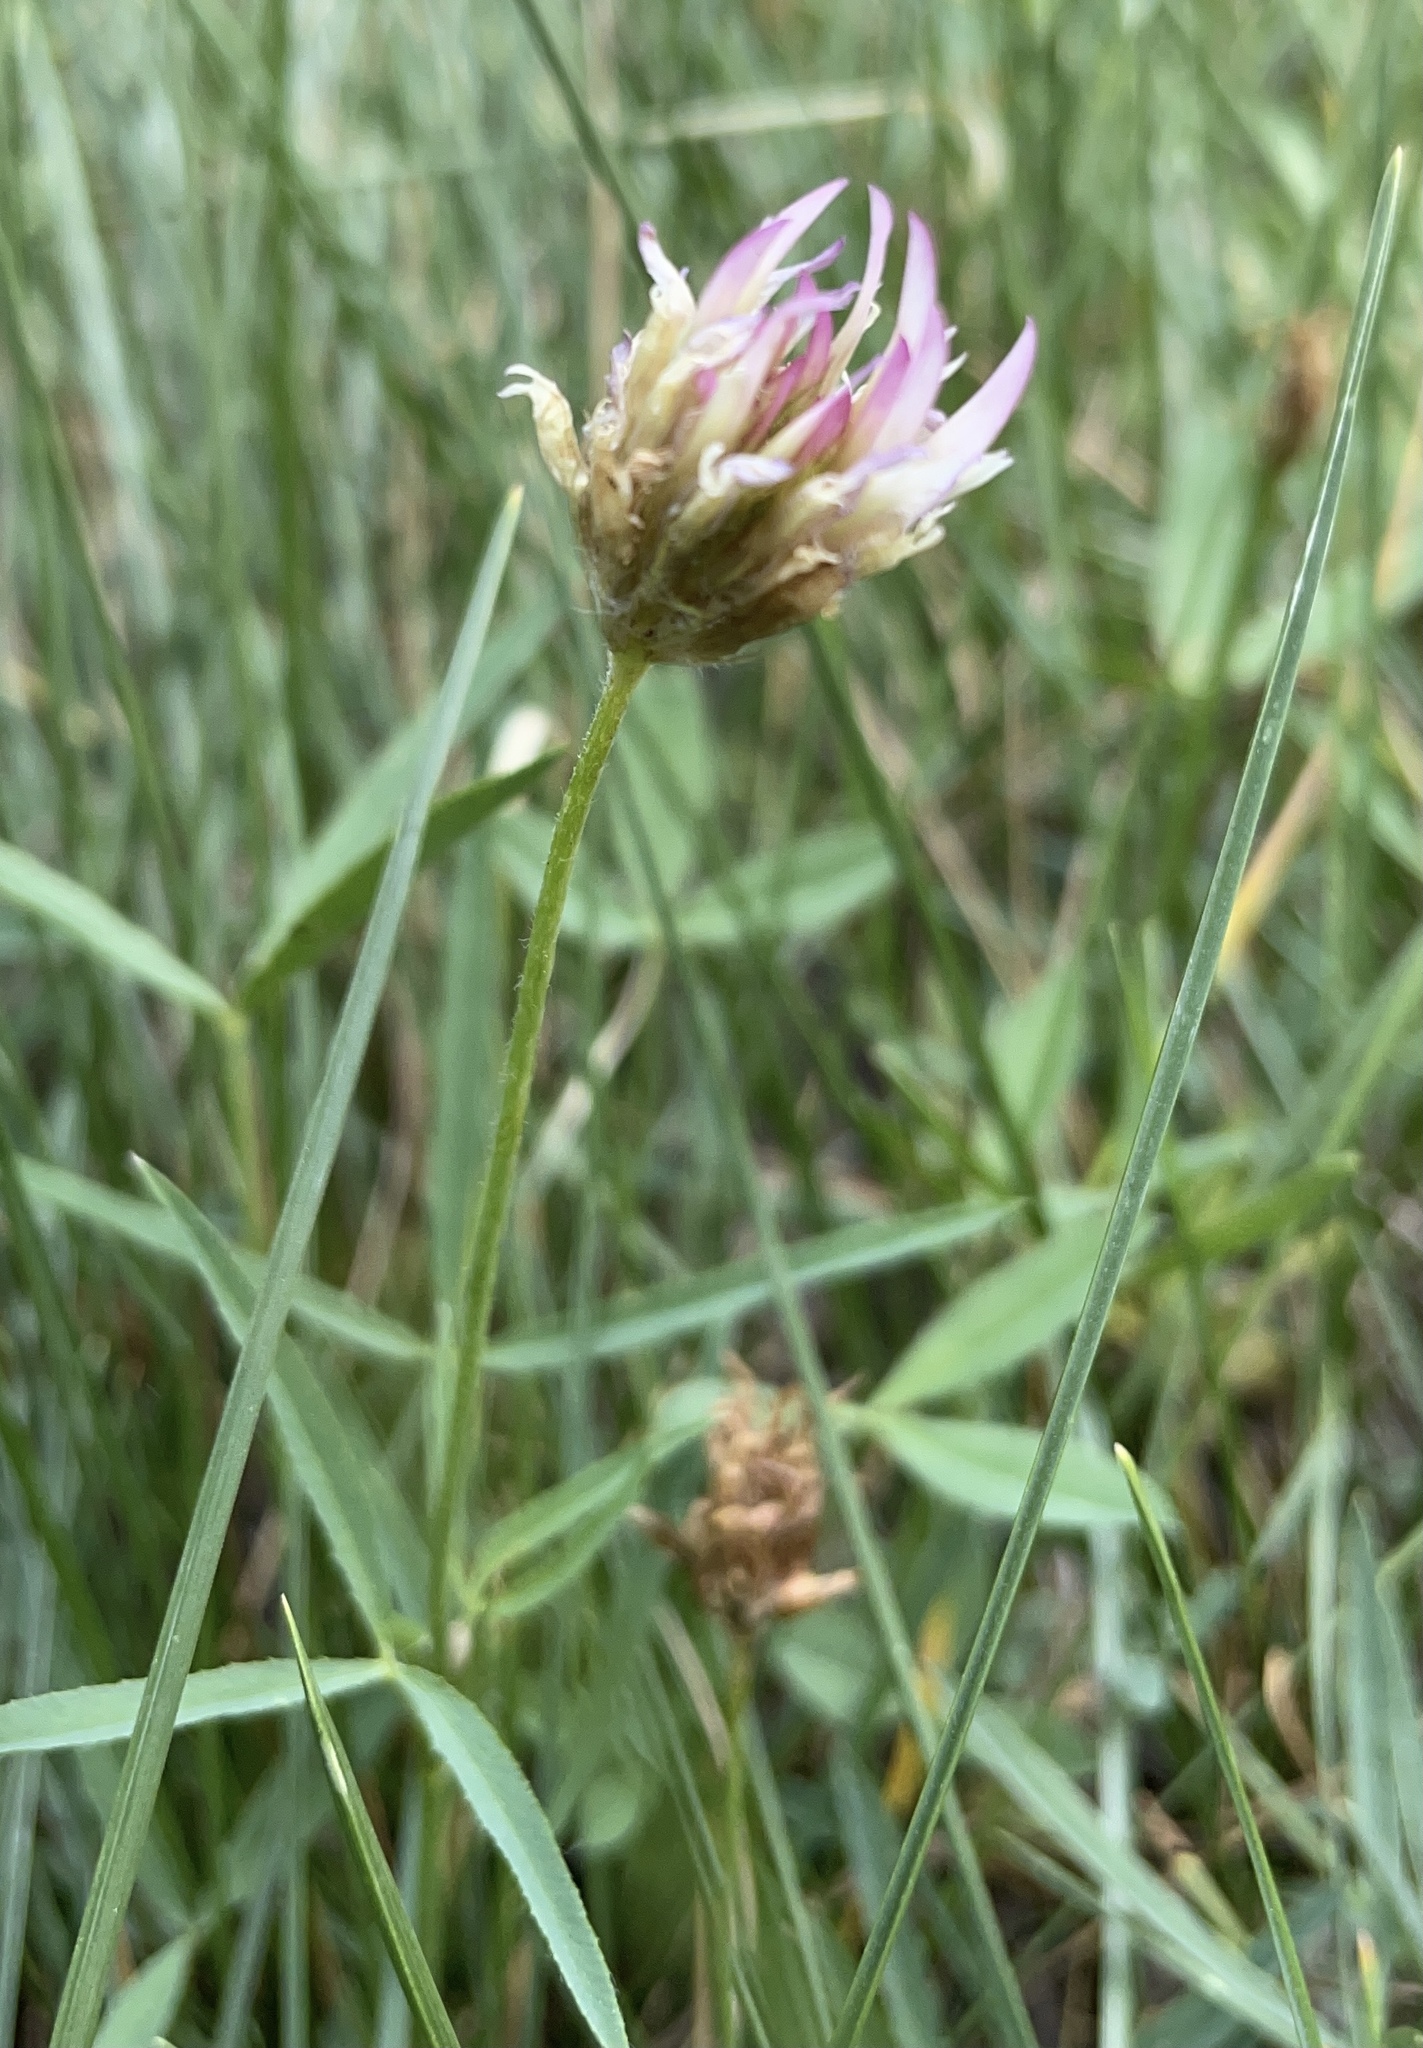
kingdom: Plantae
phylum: Tracheophyta
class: Magnoliopsida
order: Fabales
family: Fabaceae
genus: Trifolium
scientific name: Trifolium longipes
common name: Long-stalk clover
